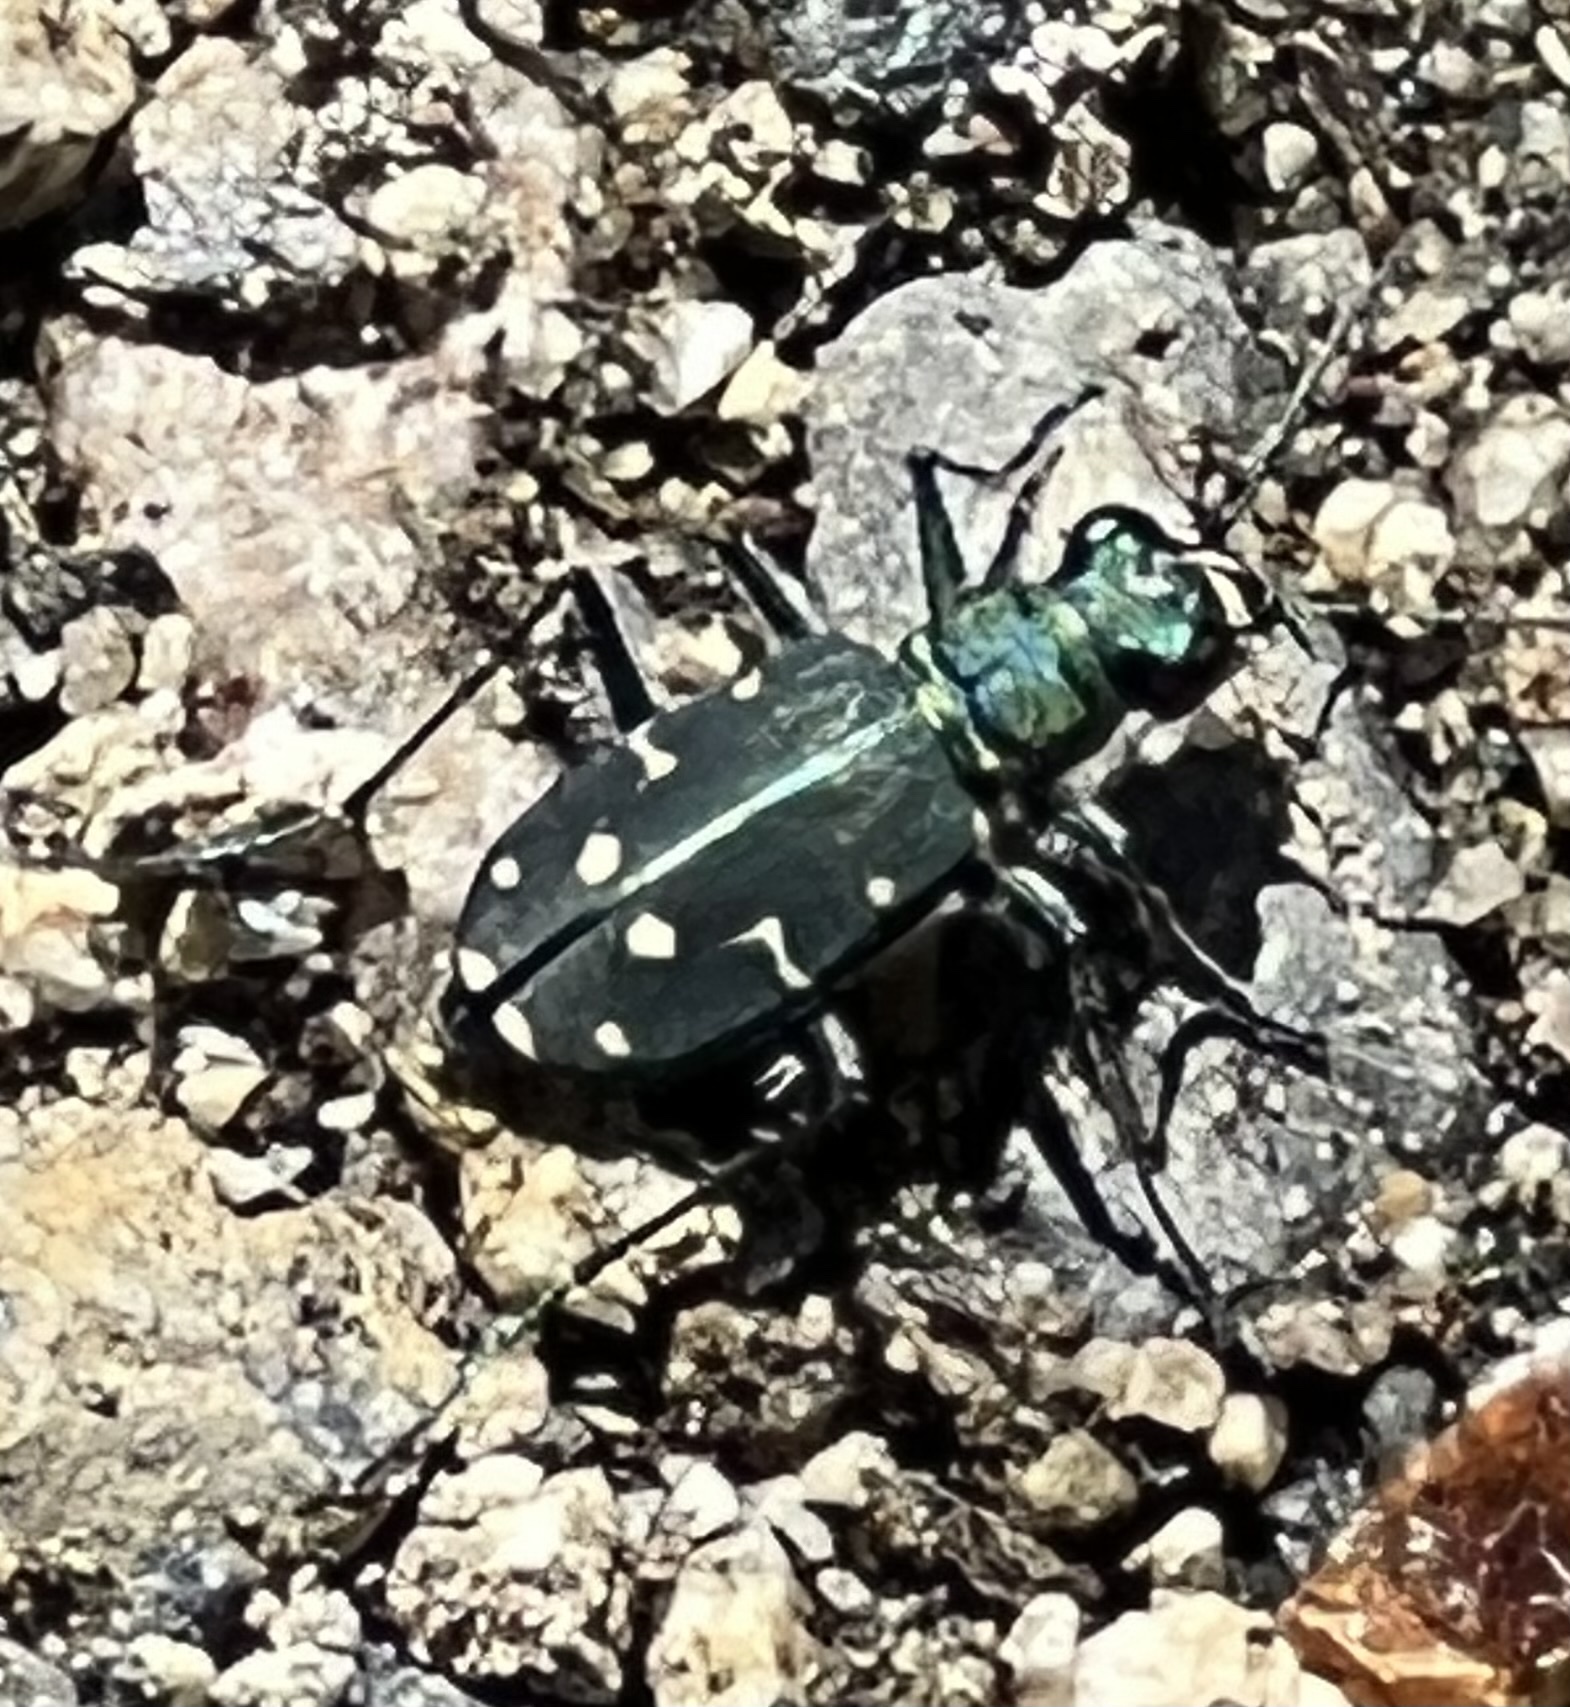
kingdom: Animalia
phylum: Arthropoda
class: Insecta
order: Coleoptera
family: Carabidae
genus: Cicindela
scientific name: Cicindela oregona
